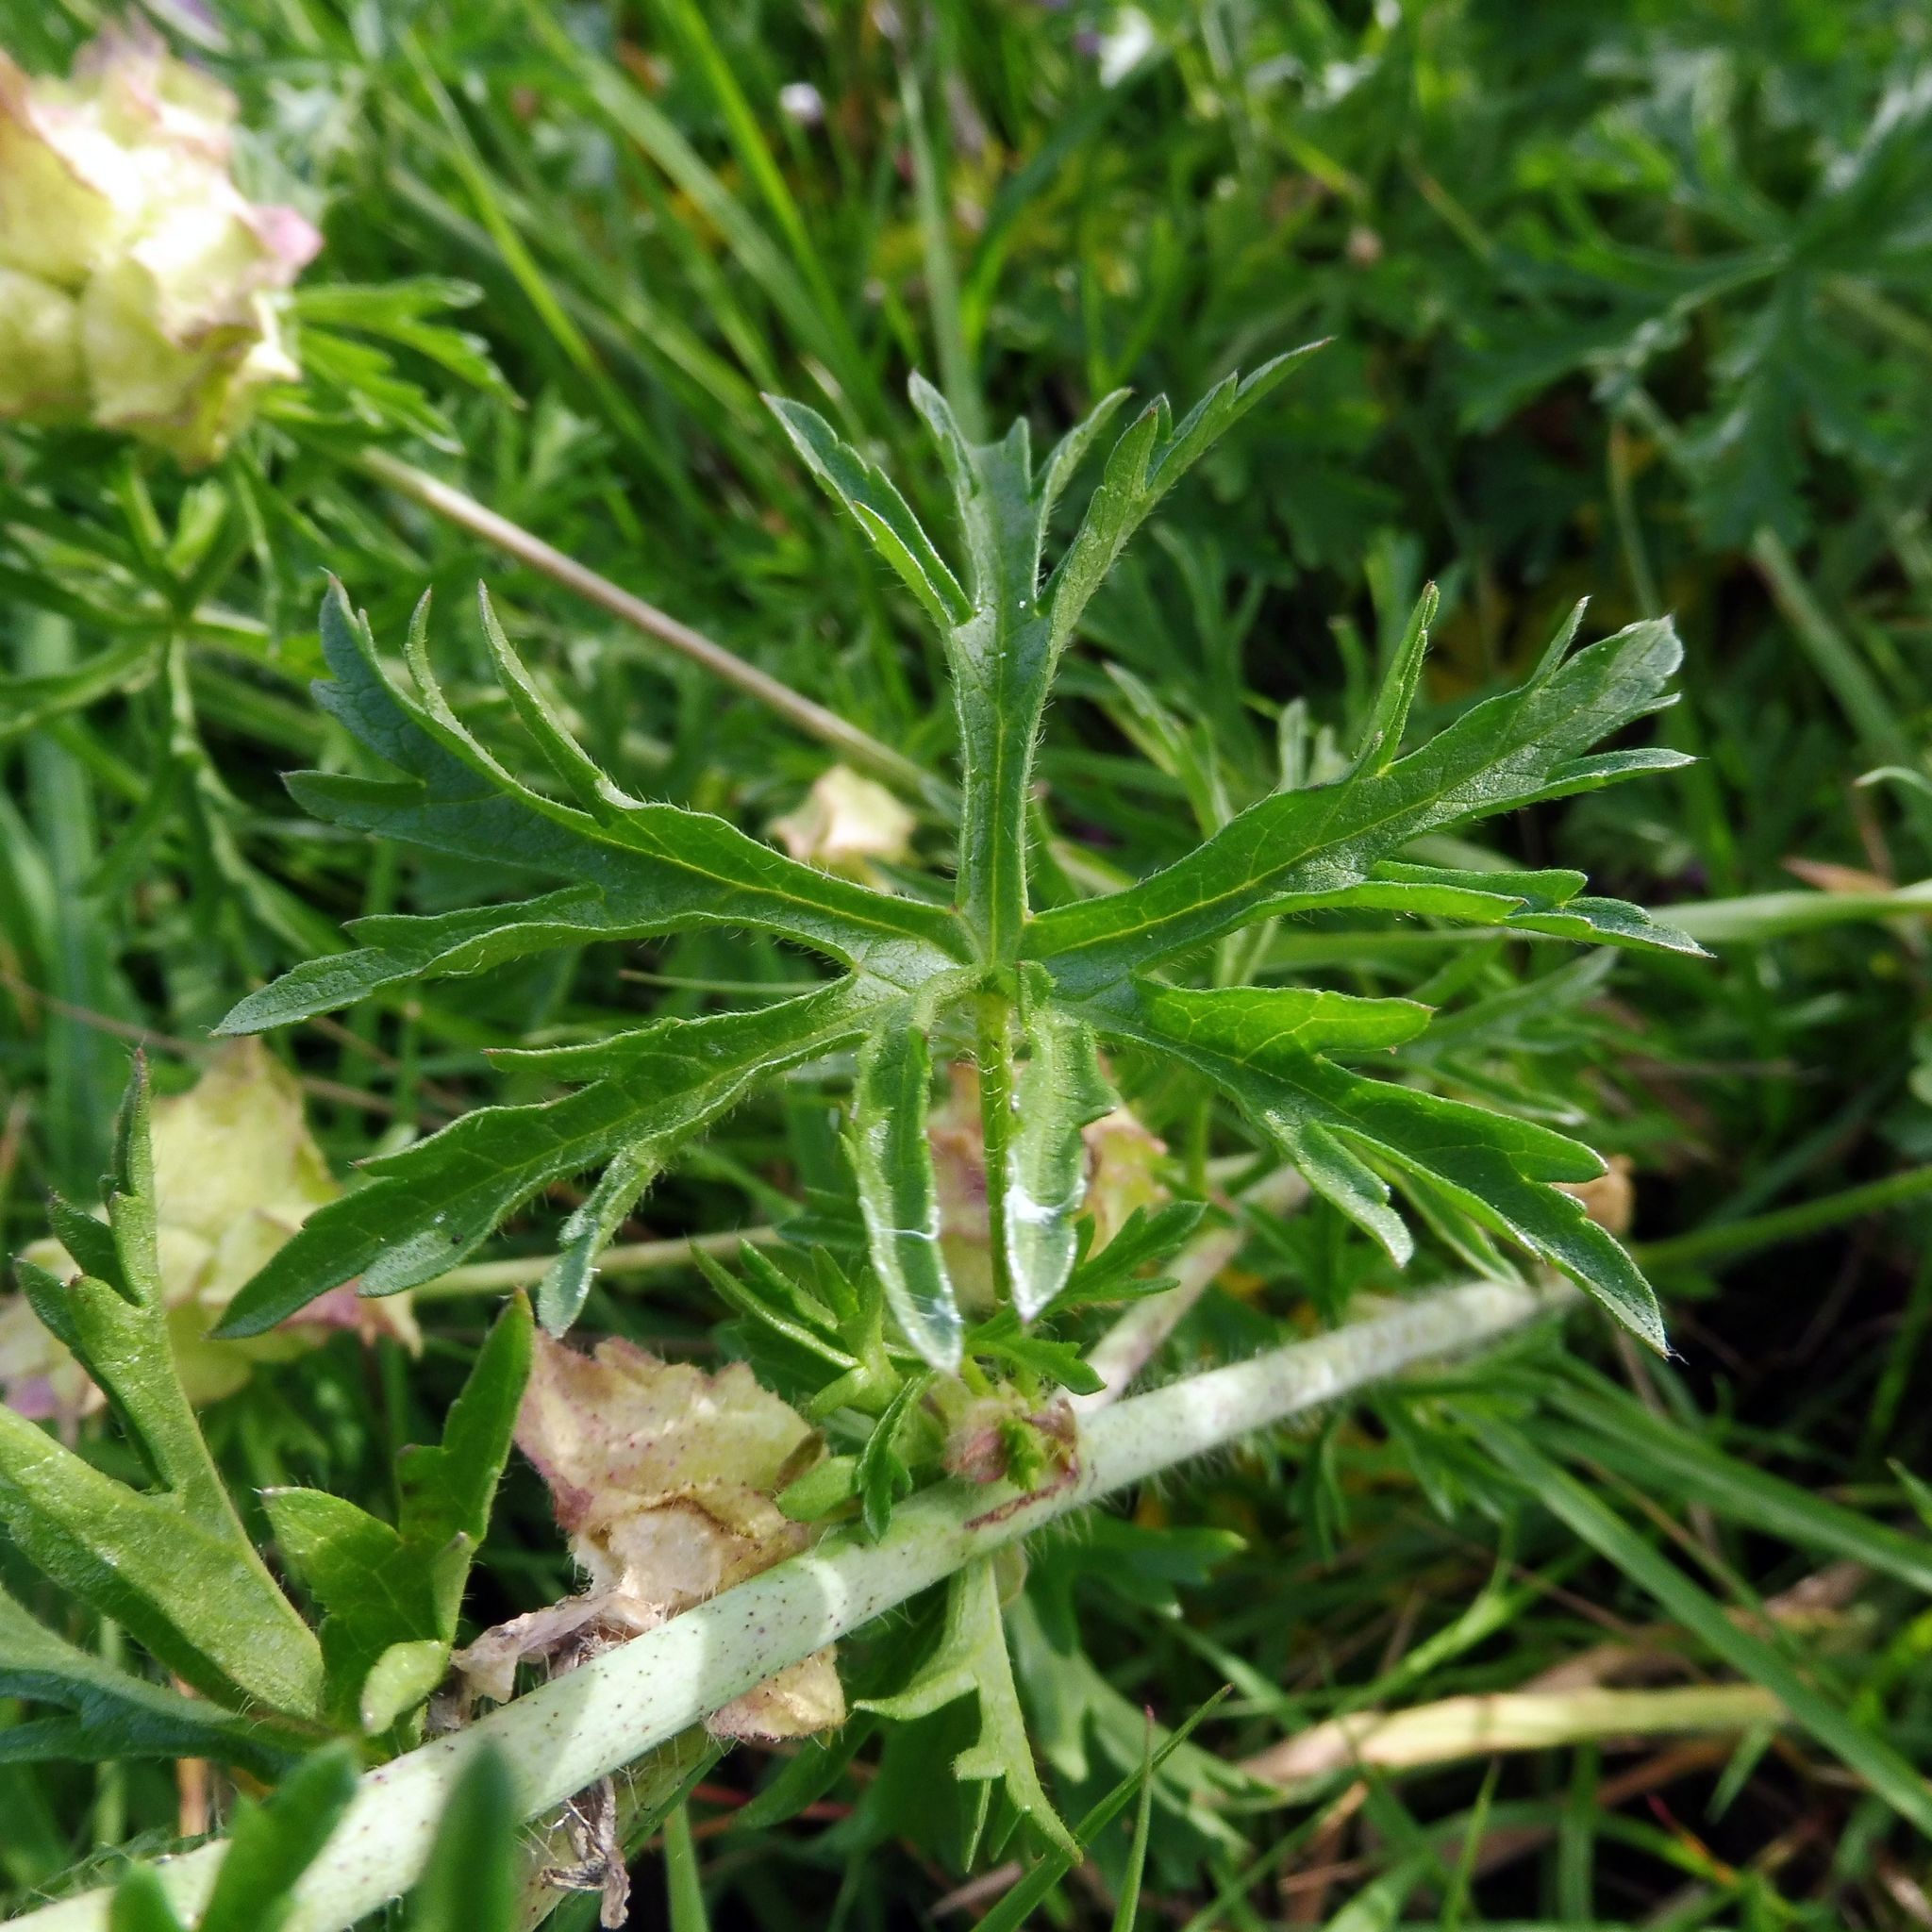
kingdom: Plantae
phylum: Tracheophyta
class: Magnoliopsida
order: Malvales
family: Malvaceae
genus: Malva
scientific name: Malva moschata
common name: Musk mallow
